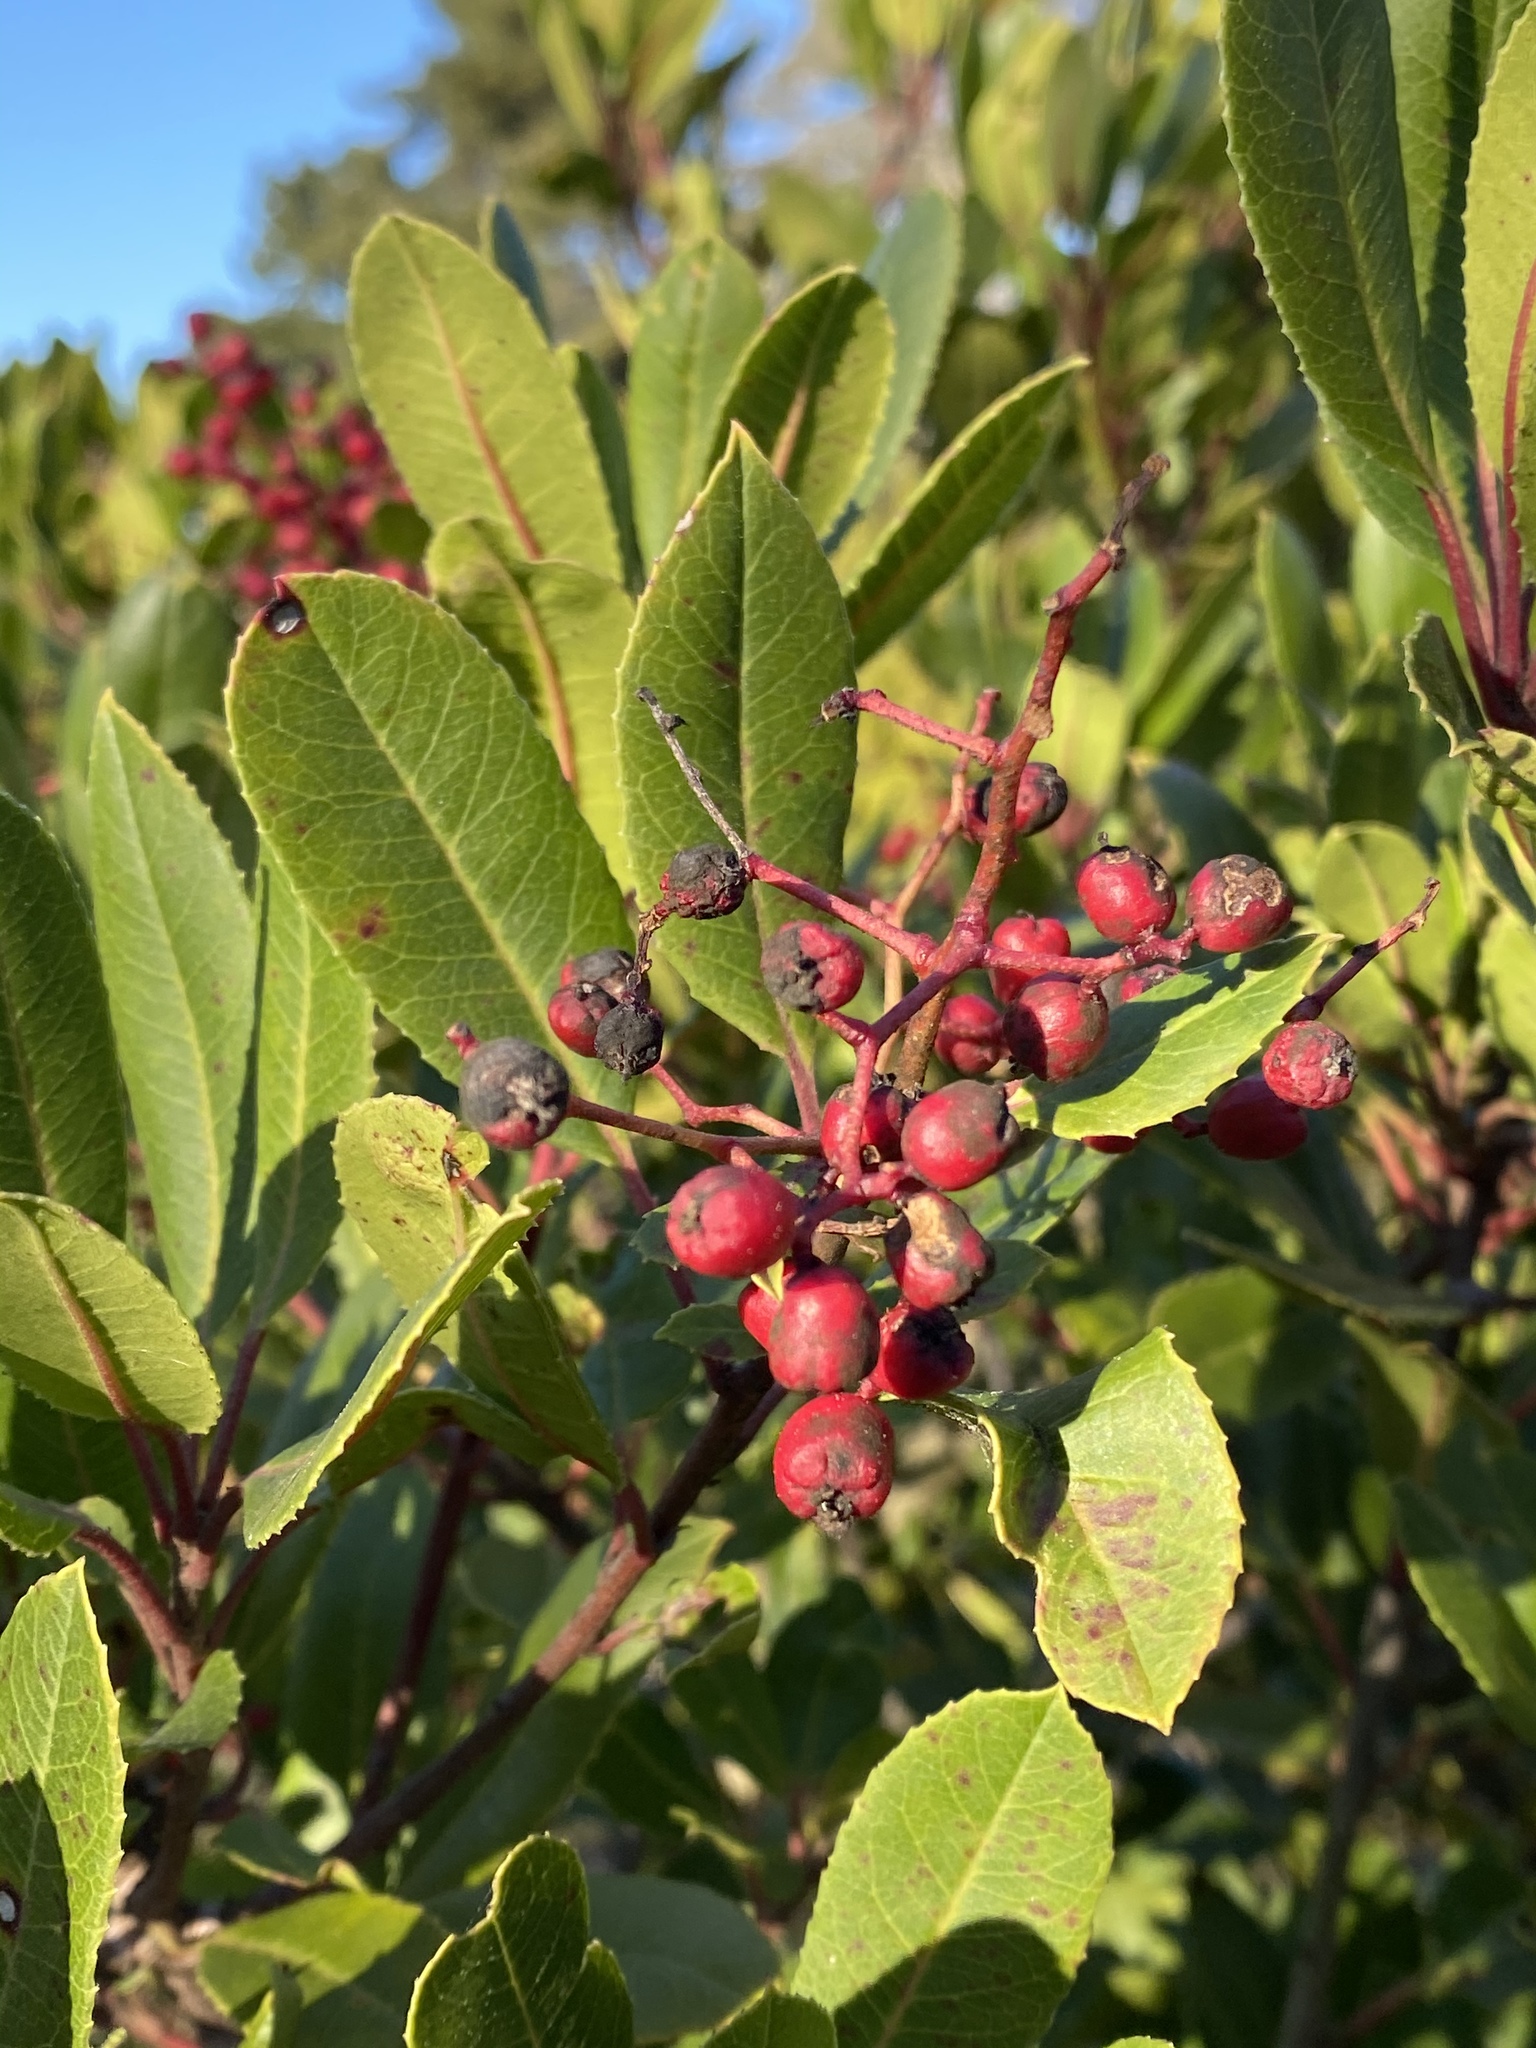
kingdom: Plantae
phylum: Tracheophyta
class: Magnoliopsida
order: Rosales
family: Rosaceae
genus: Heteromeles
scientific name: Heteromeles arbutifolia
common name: California-holly
